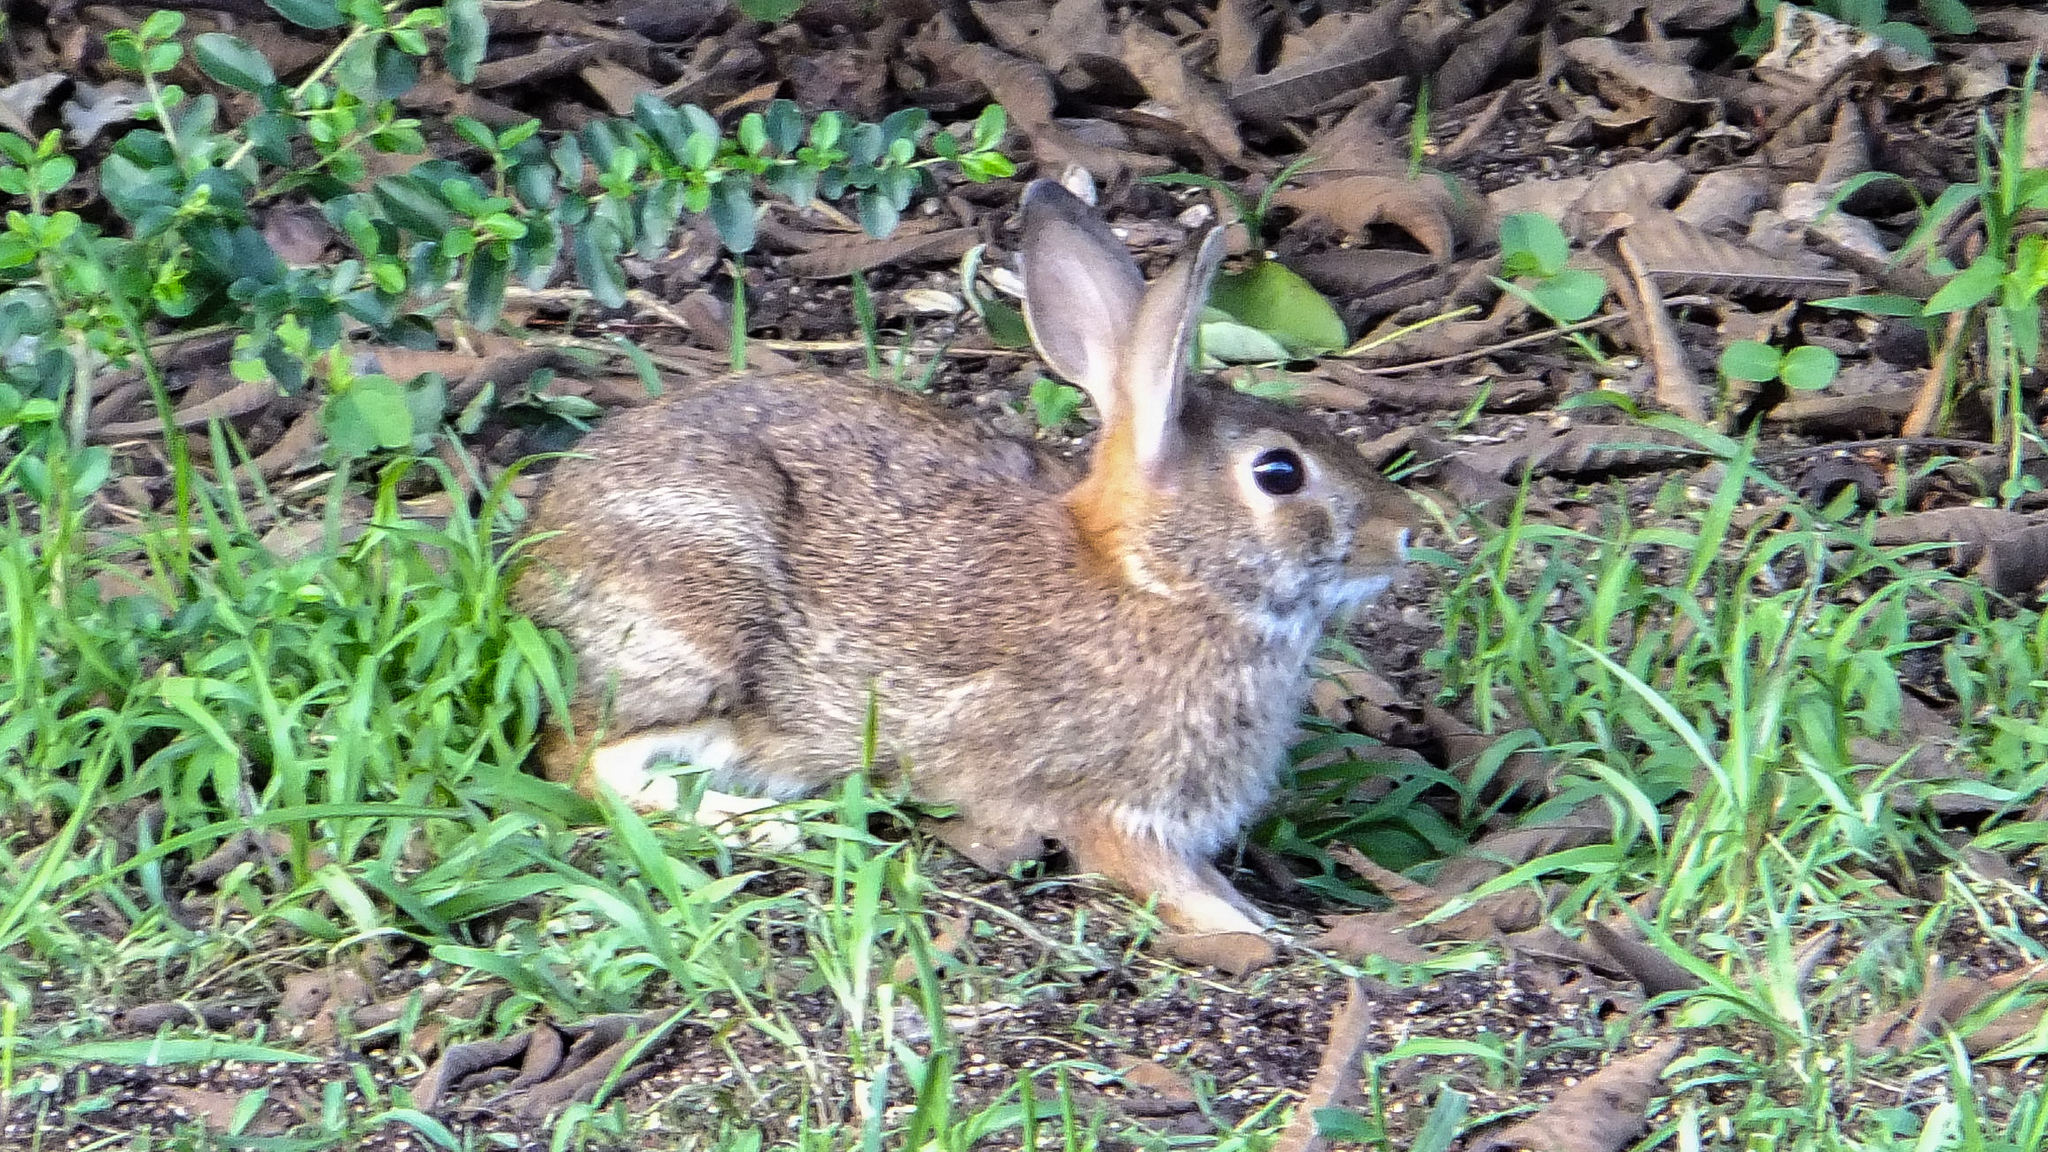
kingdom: Animalia
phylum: Chordata
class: Mammalia
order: Lagomorpha
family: Leporidae
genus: Sylvilagus
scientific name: Sylvilagus floridanus
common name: Eastern cottontail
